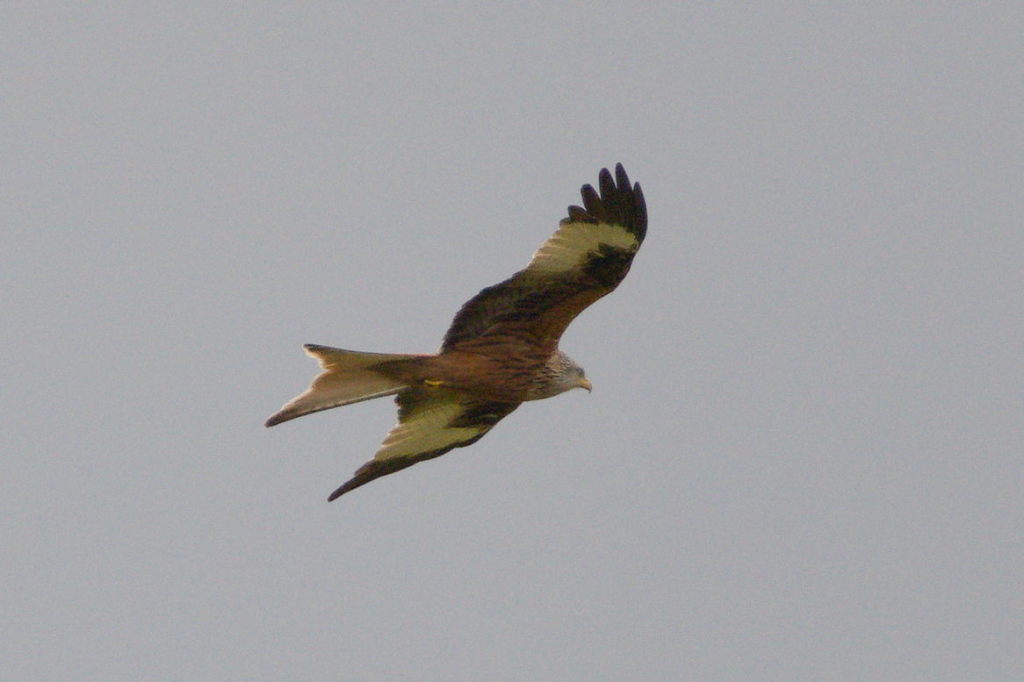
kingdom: Animalia
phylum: Chordata
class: Aves
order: Accipitriformes
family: Accipitridae
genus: Milvus
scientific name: Milvus milvus
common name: Red kite
